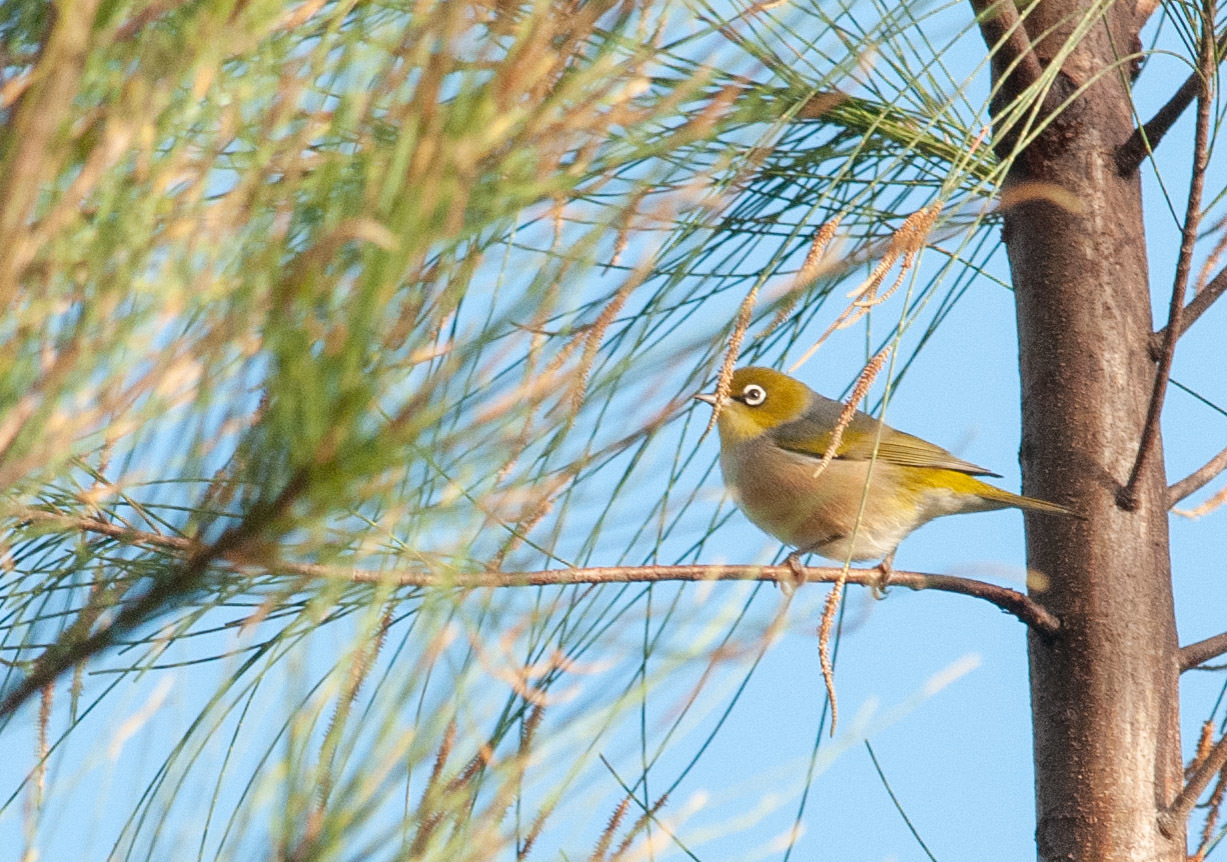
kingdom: Animalia
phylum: Chordata
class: Aves
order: Passeriformes
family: Zosteropidae
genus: Zosterops
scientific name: Zosterops lateralis
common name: Silvereye
